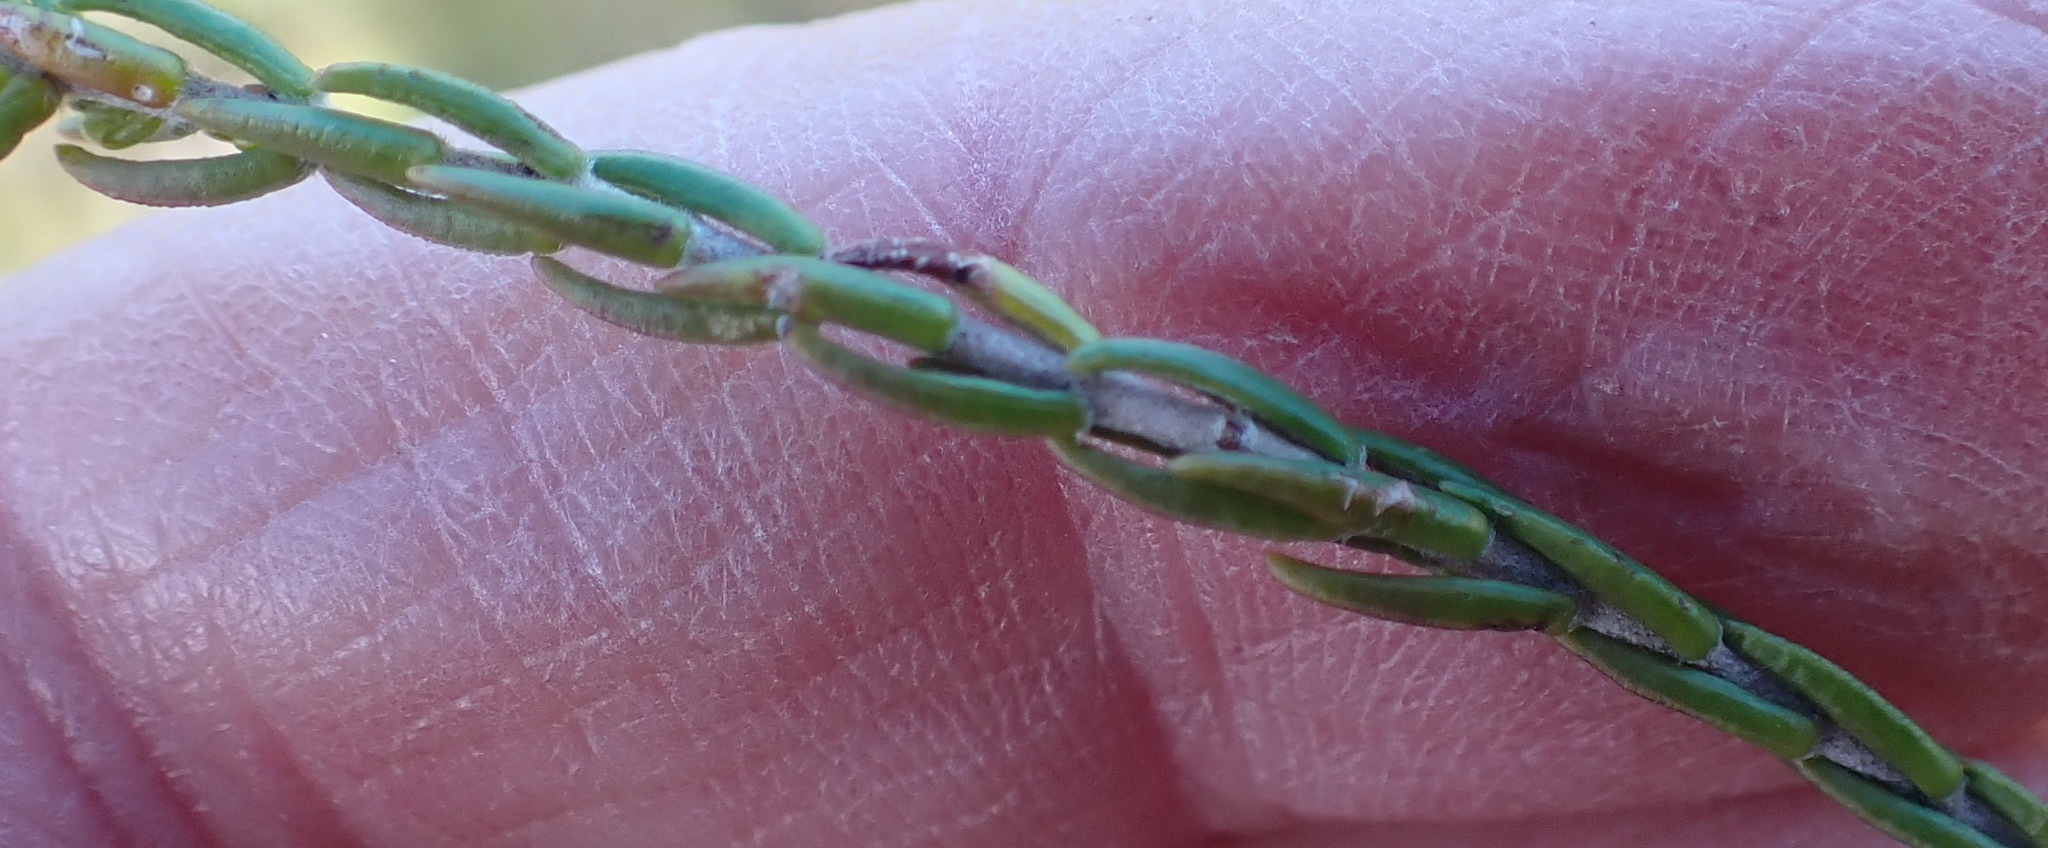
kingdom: Plantae
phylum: Tracheophyta
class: Magnoliopsida
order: Malvales
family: Thymelaeaceae
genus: Passerina
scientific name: Passerina corymbosa
